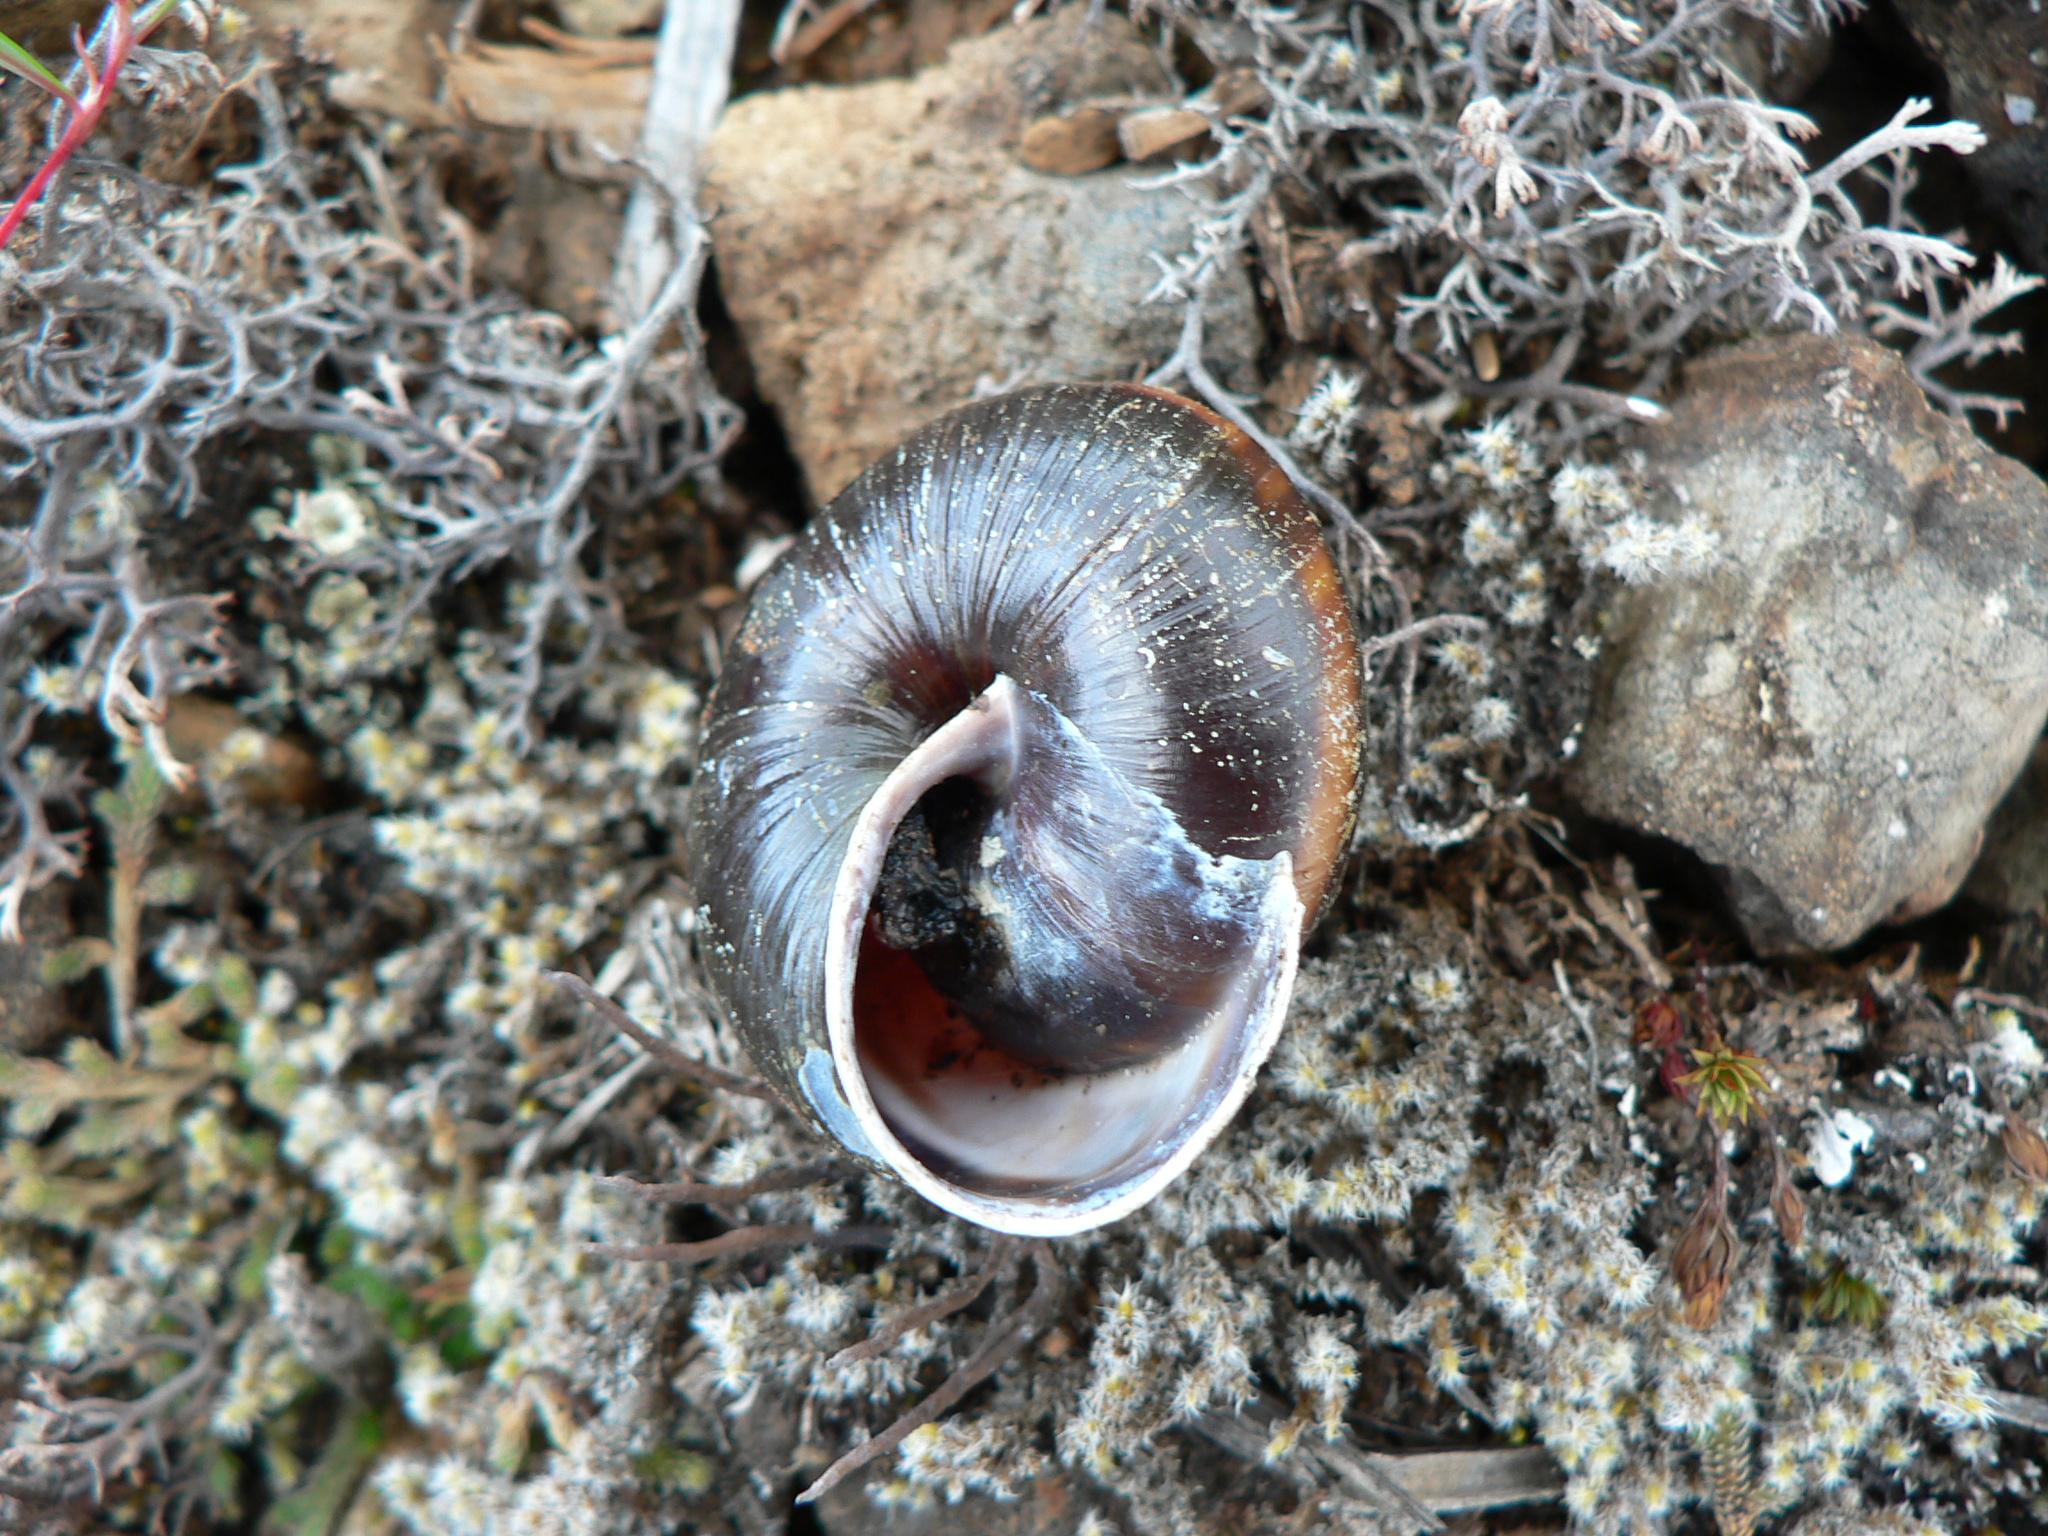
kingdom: Animalia
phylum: Mollusca
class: Gastropoda
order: Stylommatophora
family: Xanthonychidae
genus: Monadenia
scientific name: Monadenia fidelis
